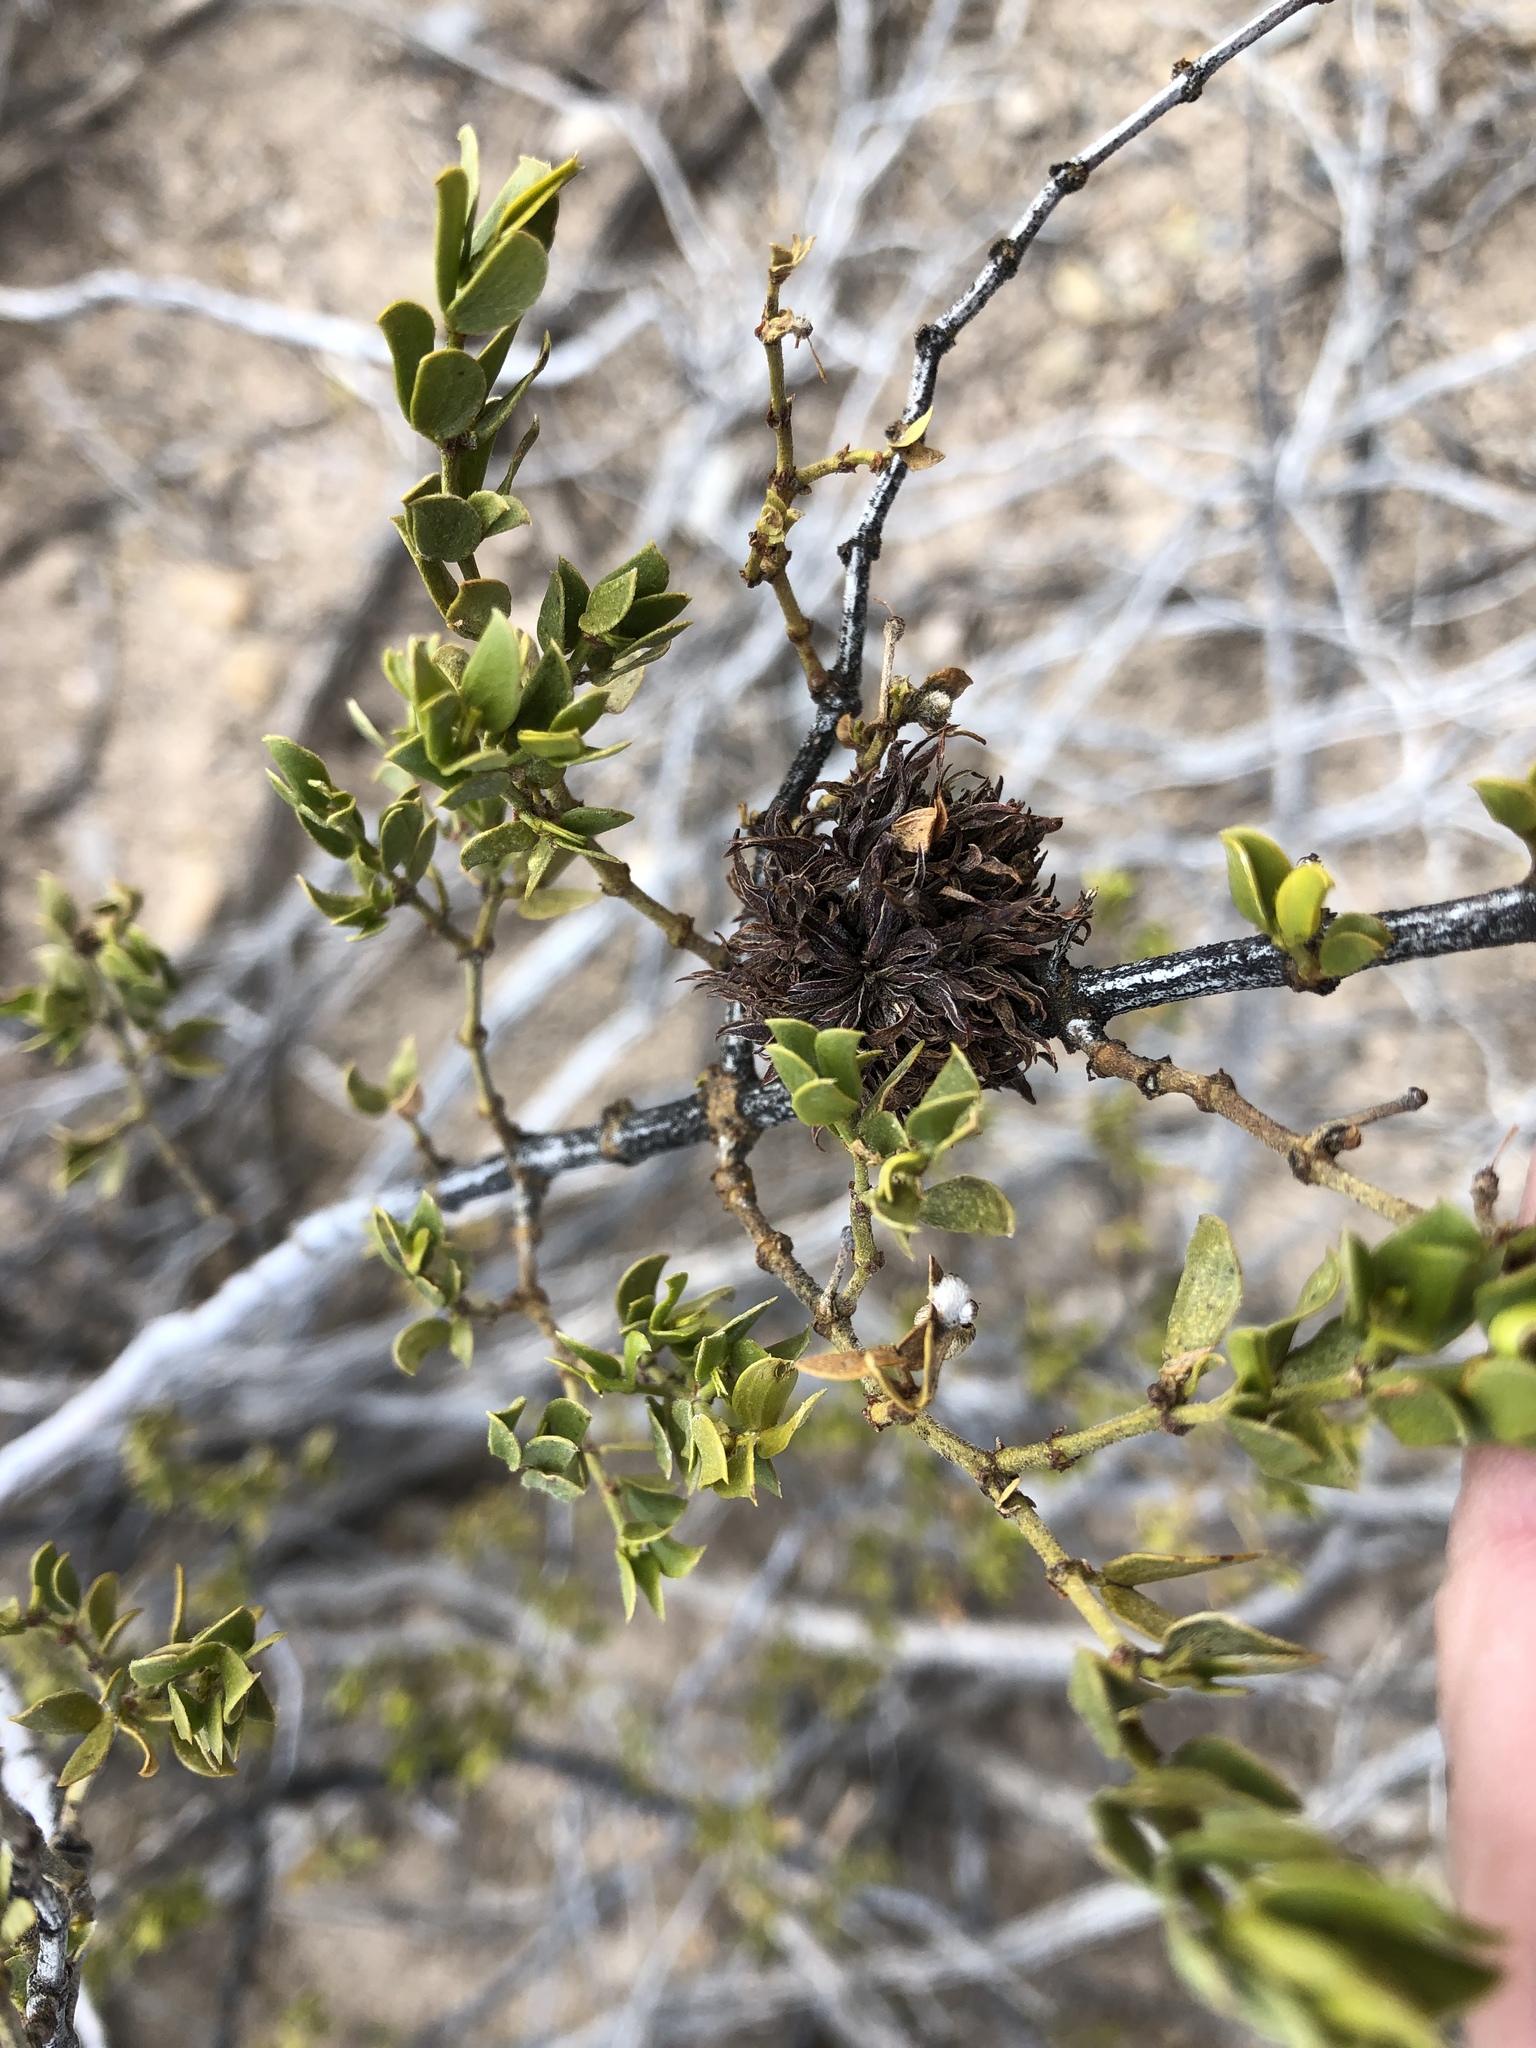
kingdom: Animalia
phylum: Arthropoda
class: Insecta
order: Diptera
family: Cecidomyiidae
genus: Asphondylia
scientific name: Asphondylia auripila
